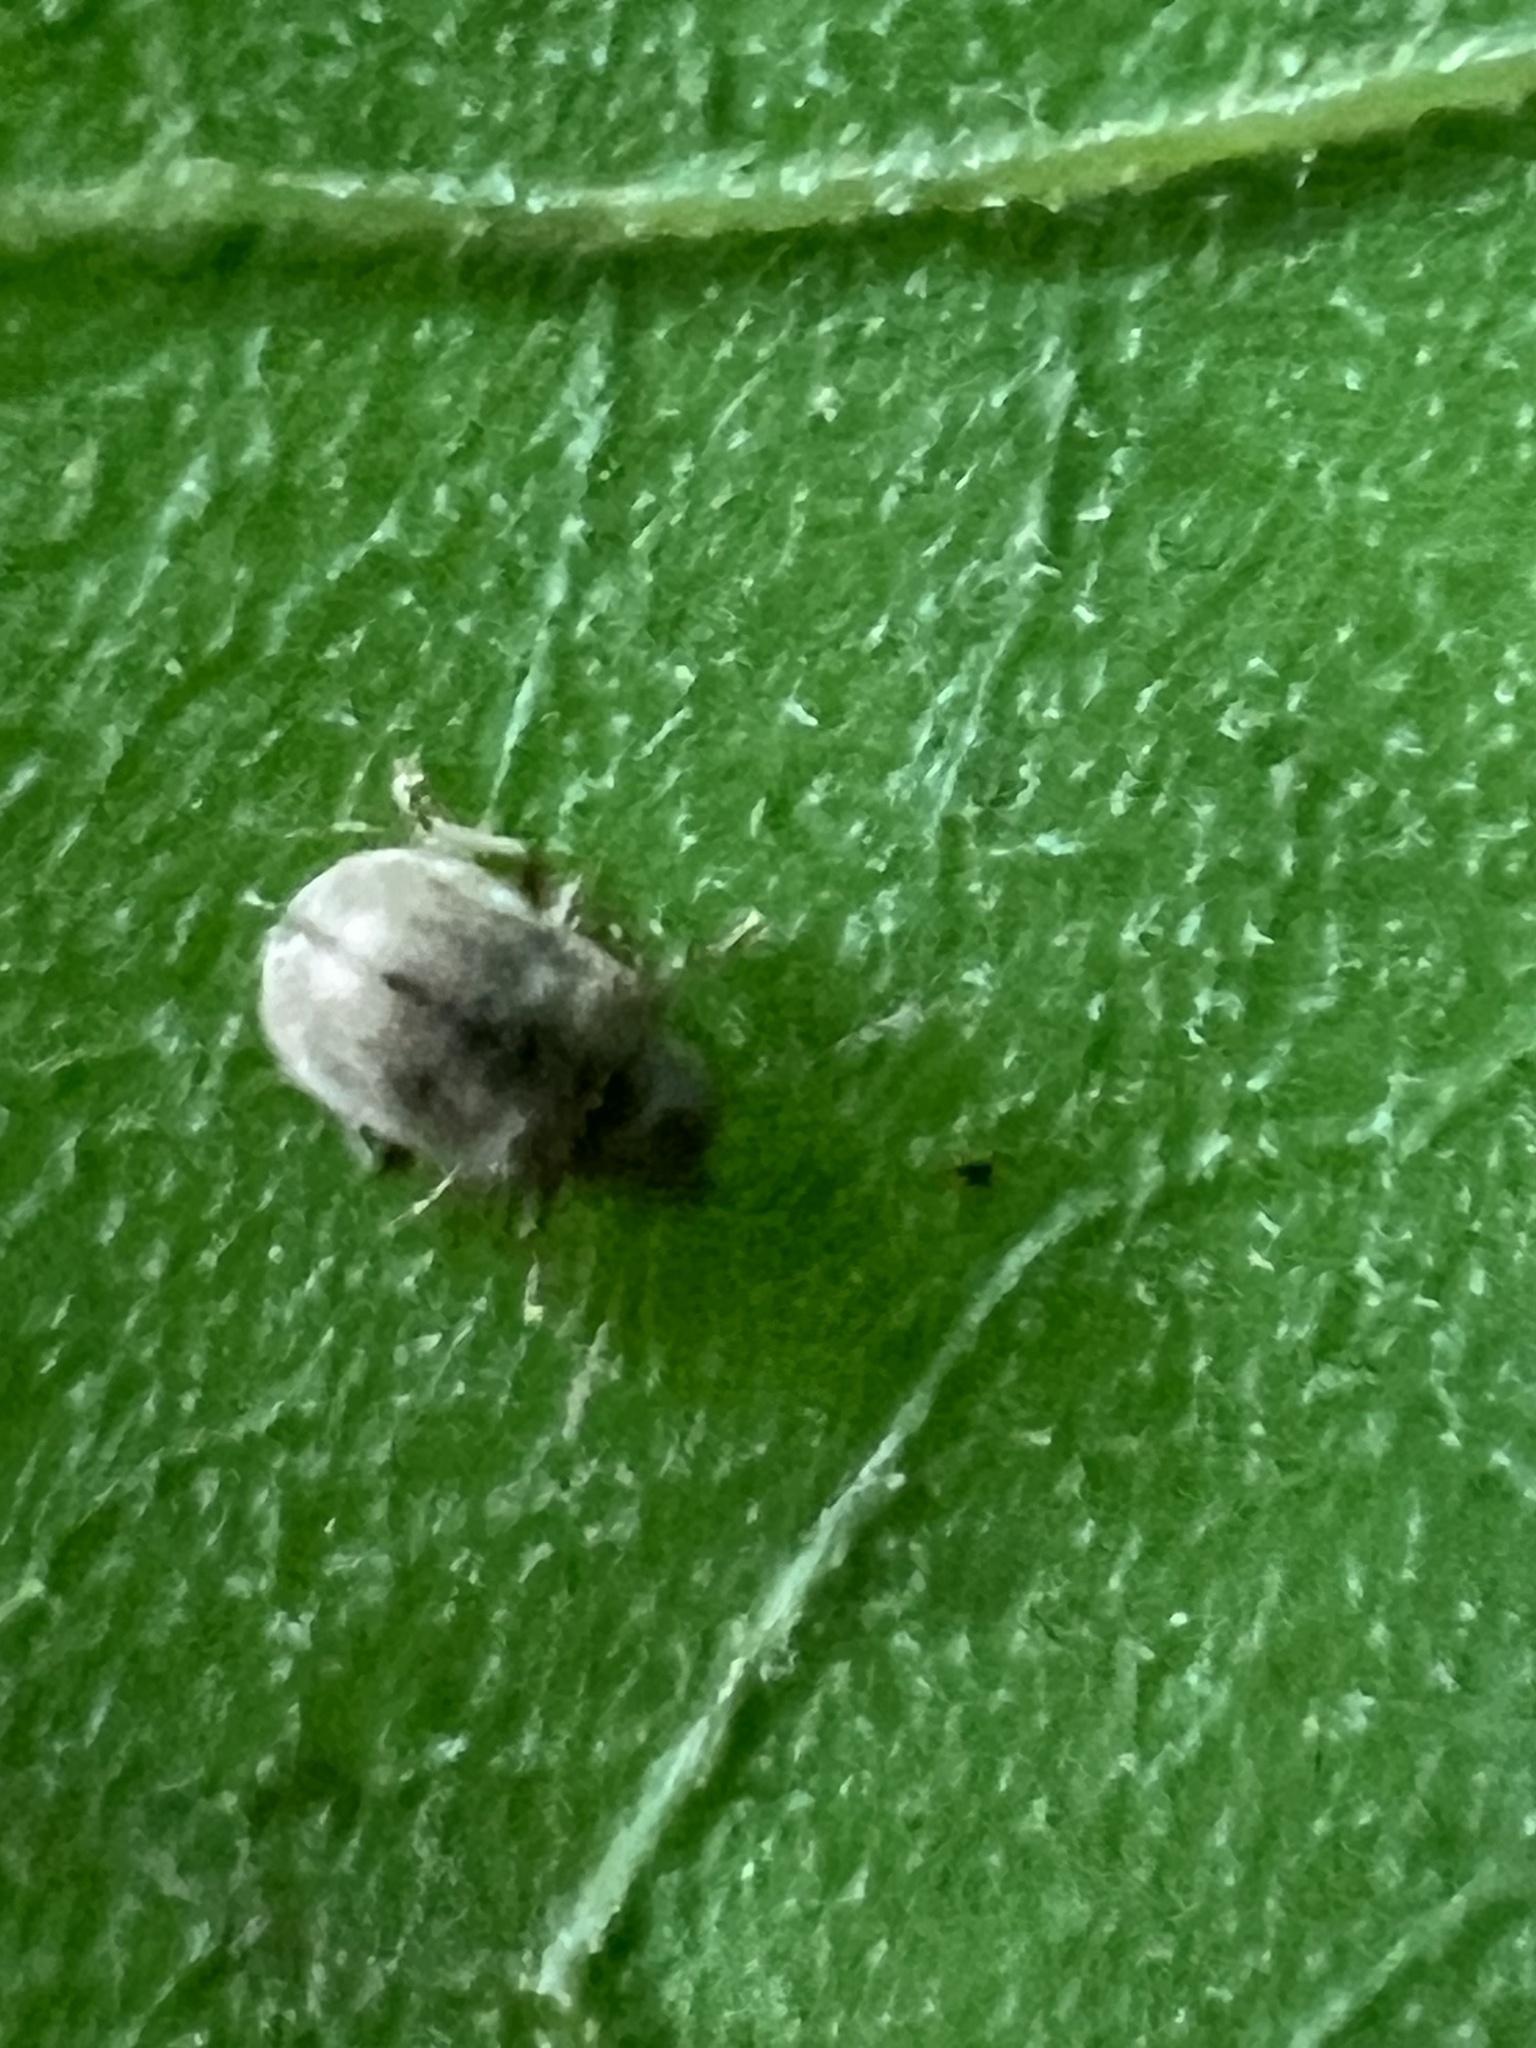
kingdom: Animalia
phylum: Arthropoda
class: Insecta
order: Coleoptera
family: Chrysomelidae
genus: Demotina
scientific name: Demotina modesta
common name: Leaf beetle
